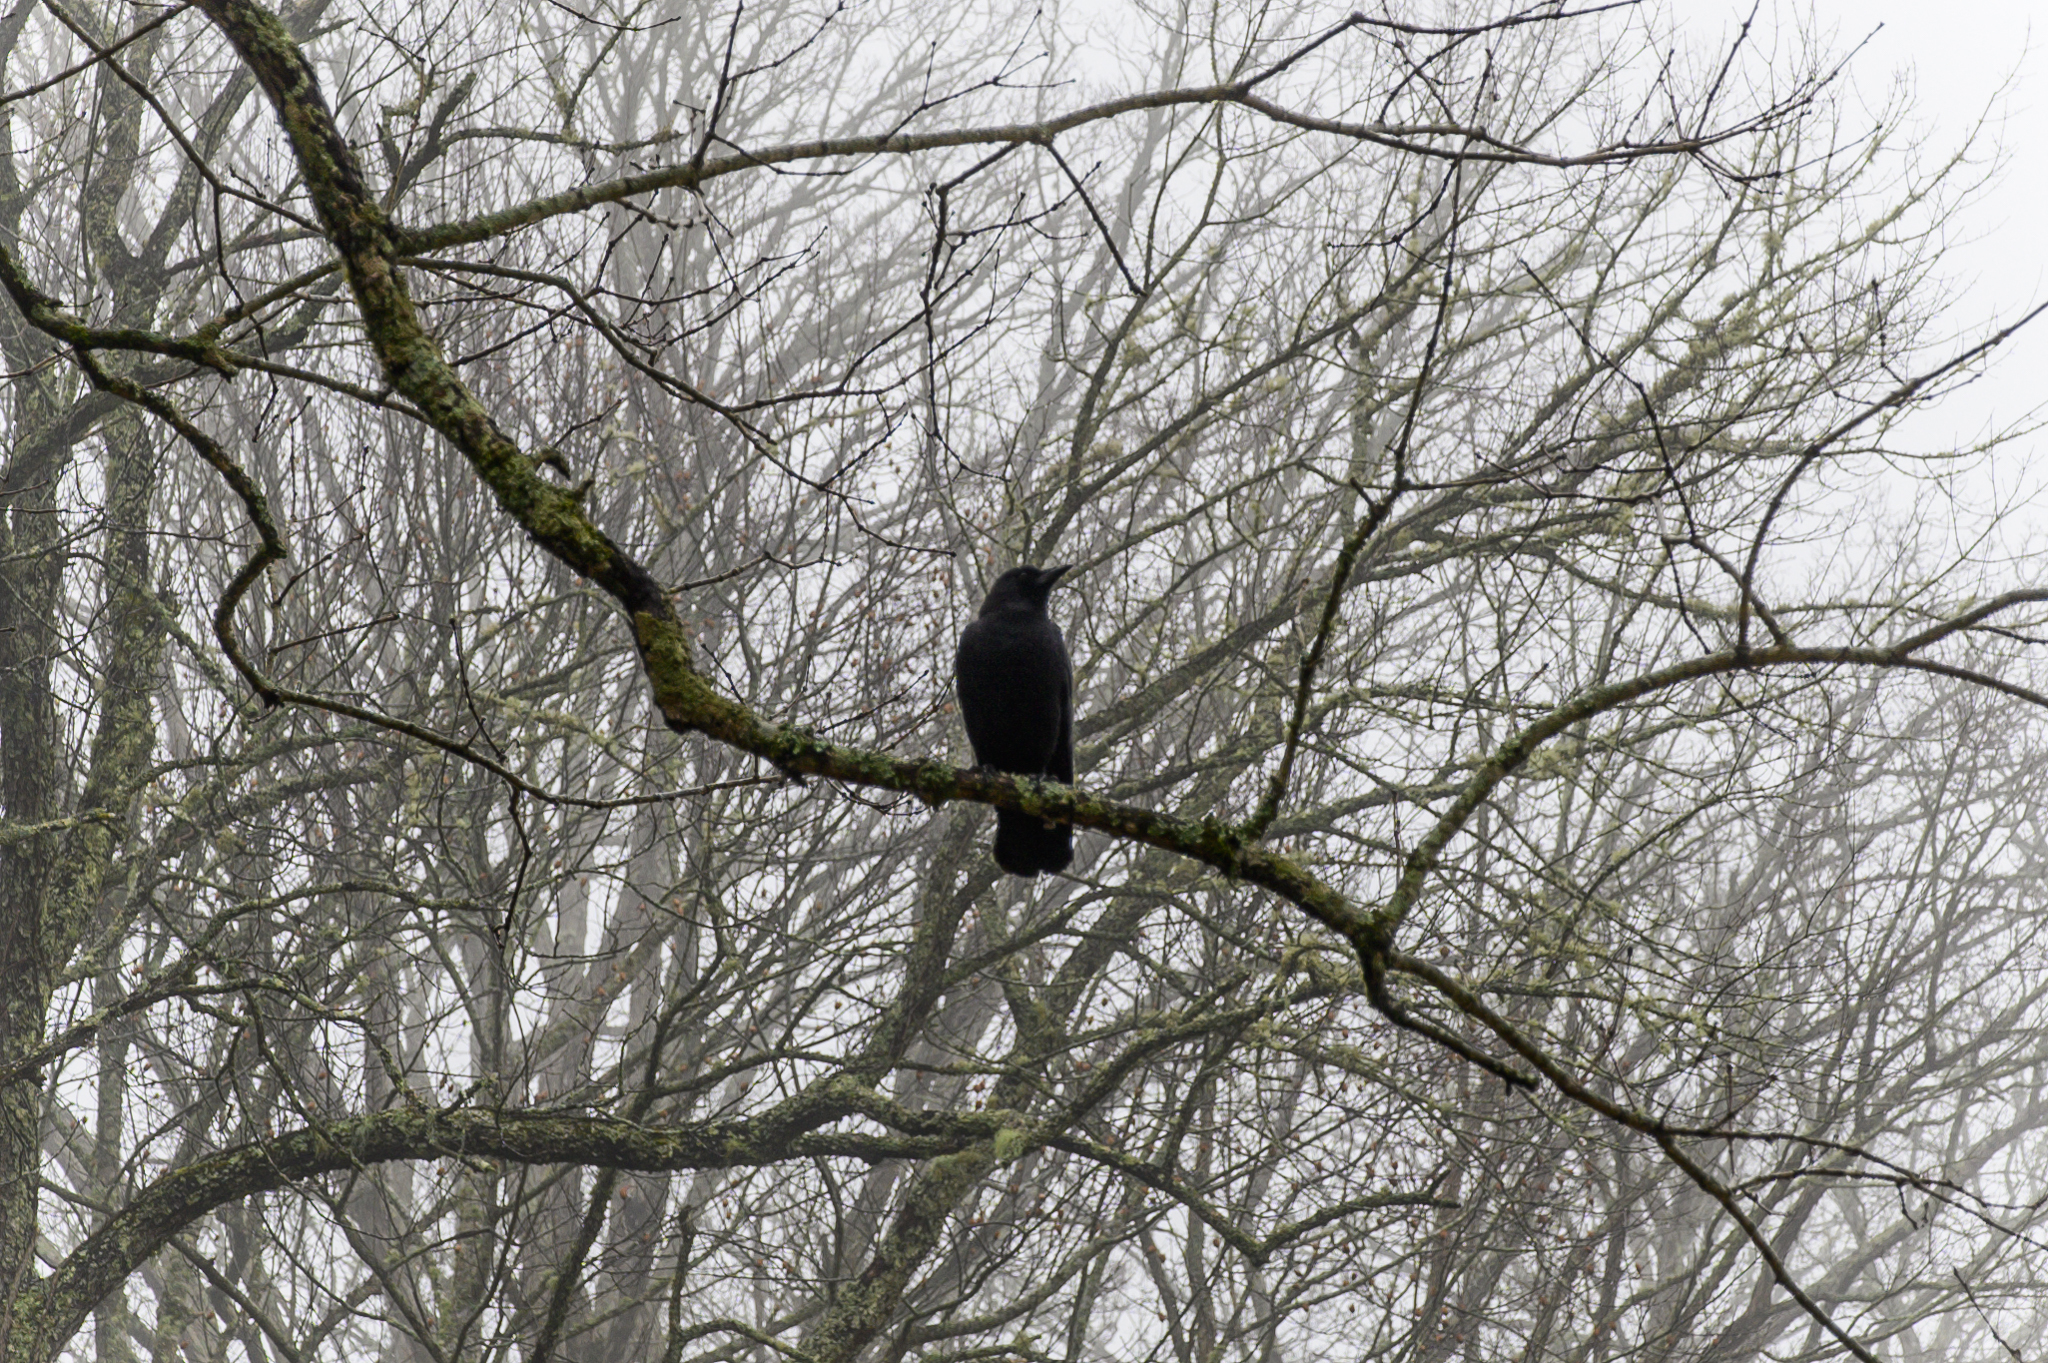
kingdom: Animalia
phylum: Chordata
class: Aves
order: Passeriformes
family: Corvidae
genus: Corvus
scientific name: Corvus brachyrhynchos
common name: American crow
